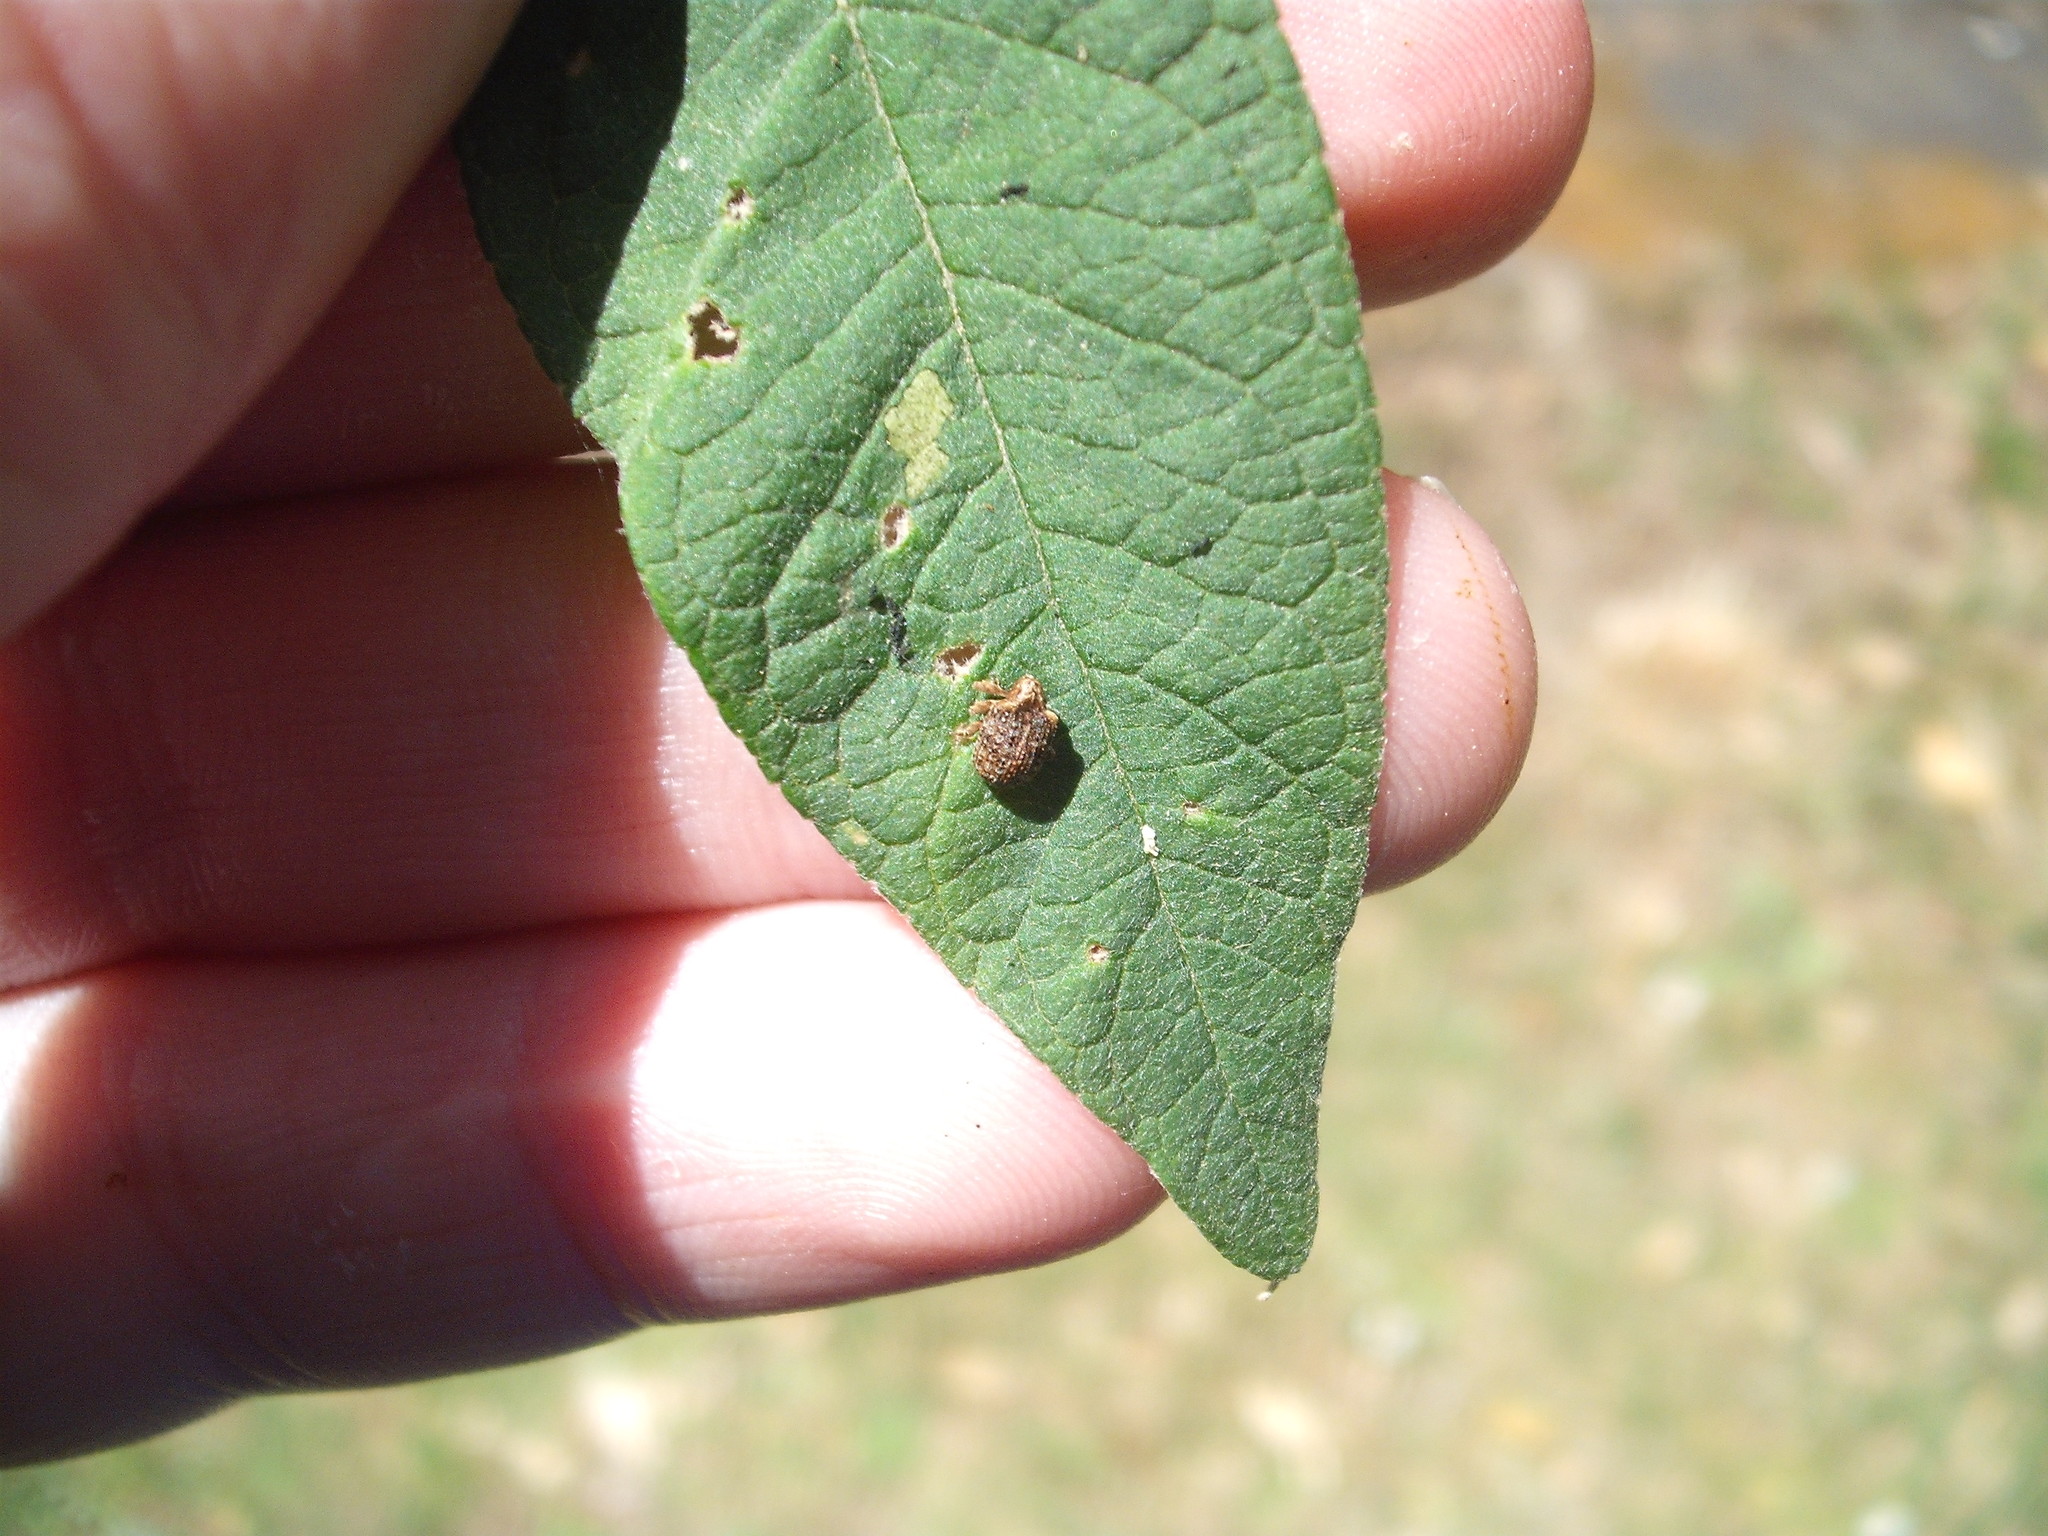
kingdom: Animalia
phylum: Arthropoda
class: Insecta
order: Coleoptera
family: Curculionidae
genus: Cleopus
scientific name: Cleopus japonicus
